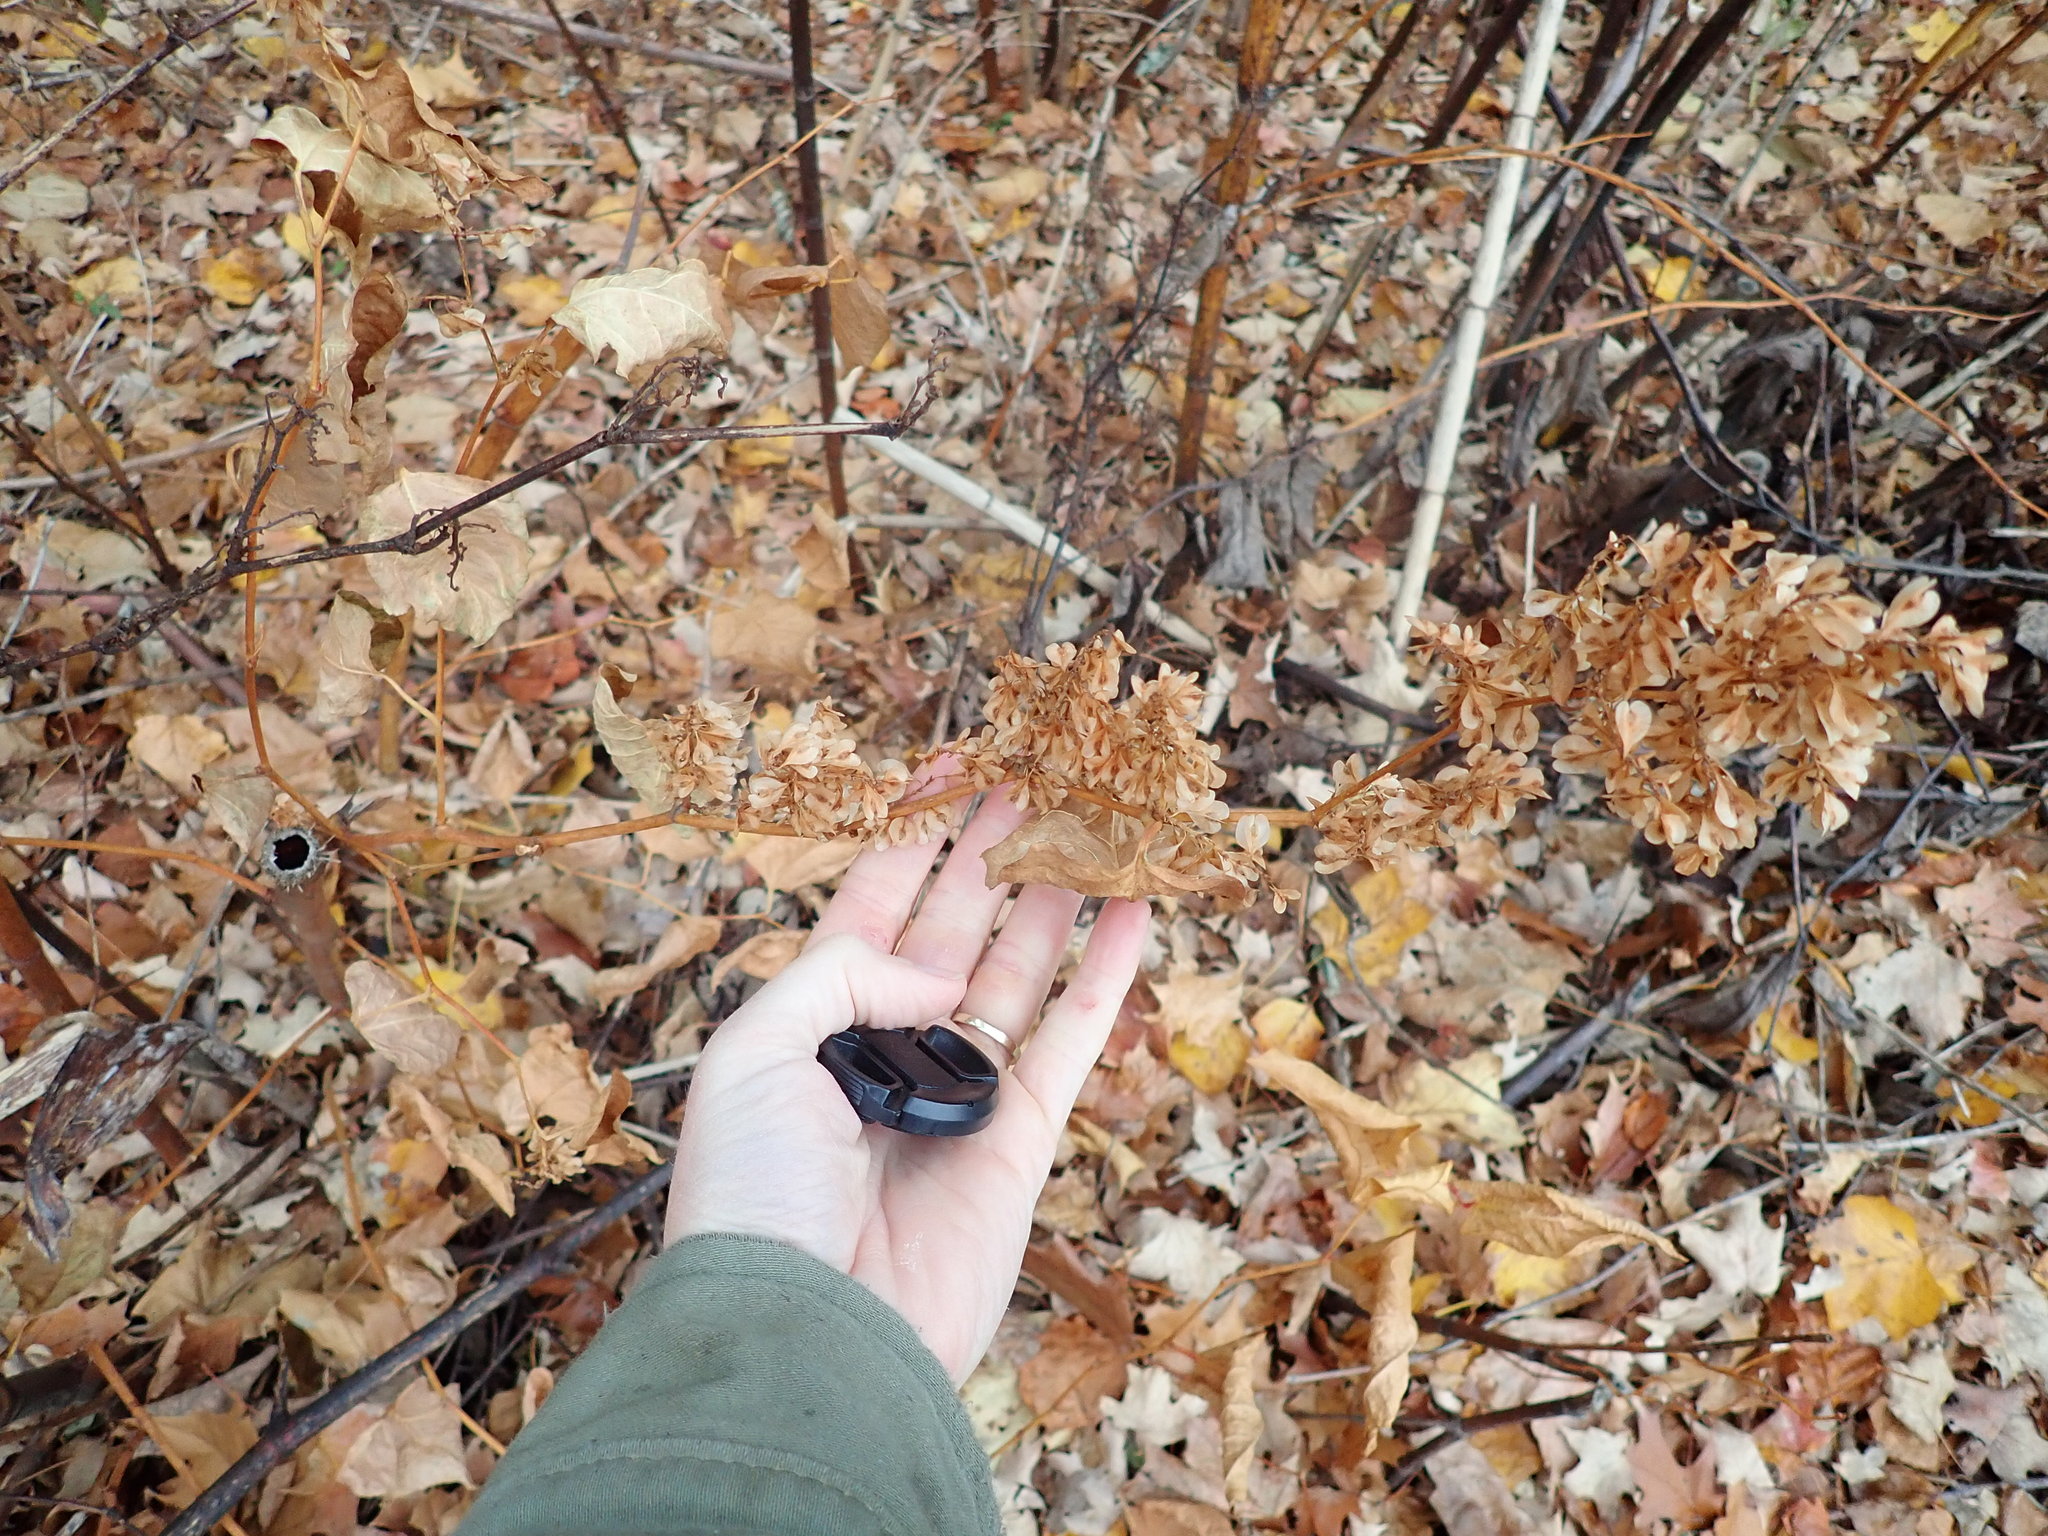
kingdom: Plantae
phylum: Tracheophyta
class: Magnoliopsida
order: Caryophyllales
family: Polygonaceae
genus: Reynoutria
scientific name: Reynoutria japonica
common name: Japanese knotweed
